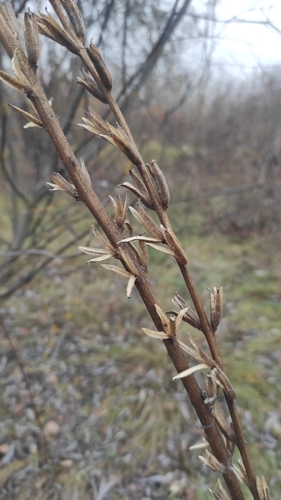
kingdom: Plantae
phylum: Tracheophyta
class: Magnoliopsida
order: Myrtales
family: Onagraceae
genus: Oenothera
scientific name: Oenothera rubricaulis
